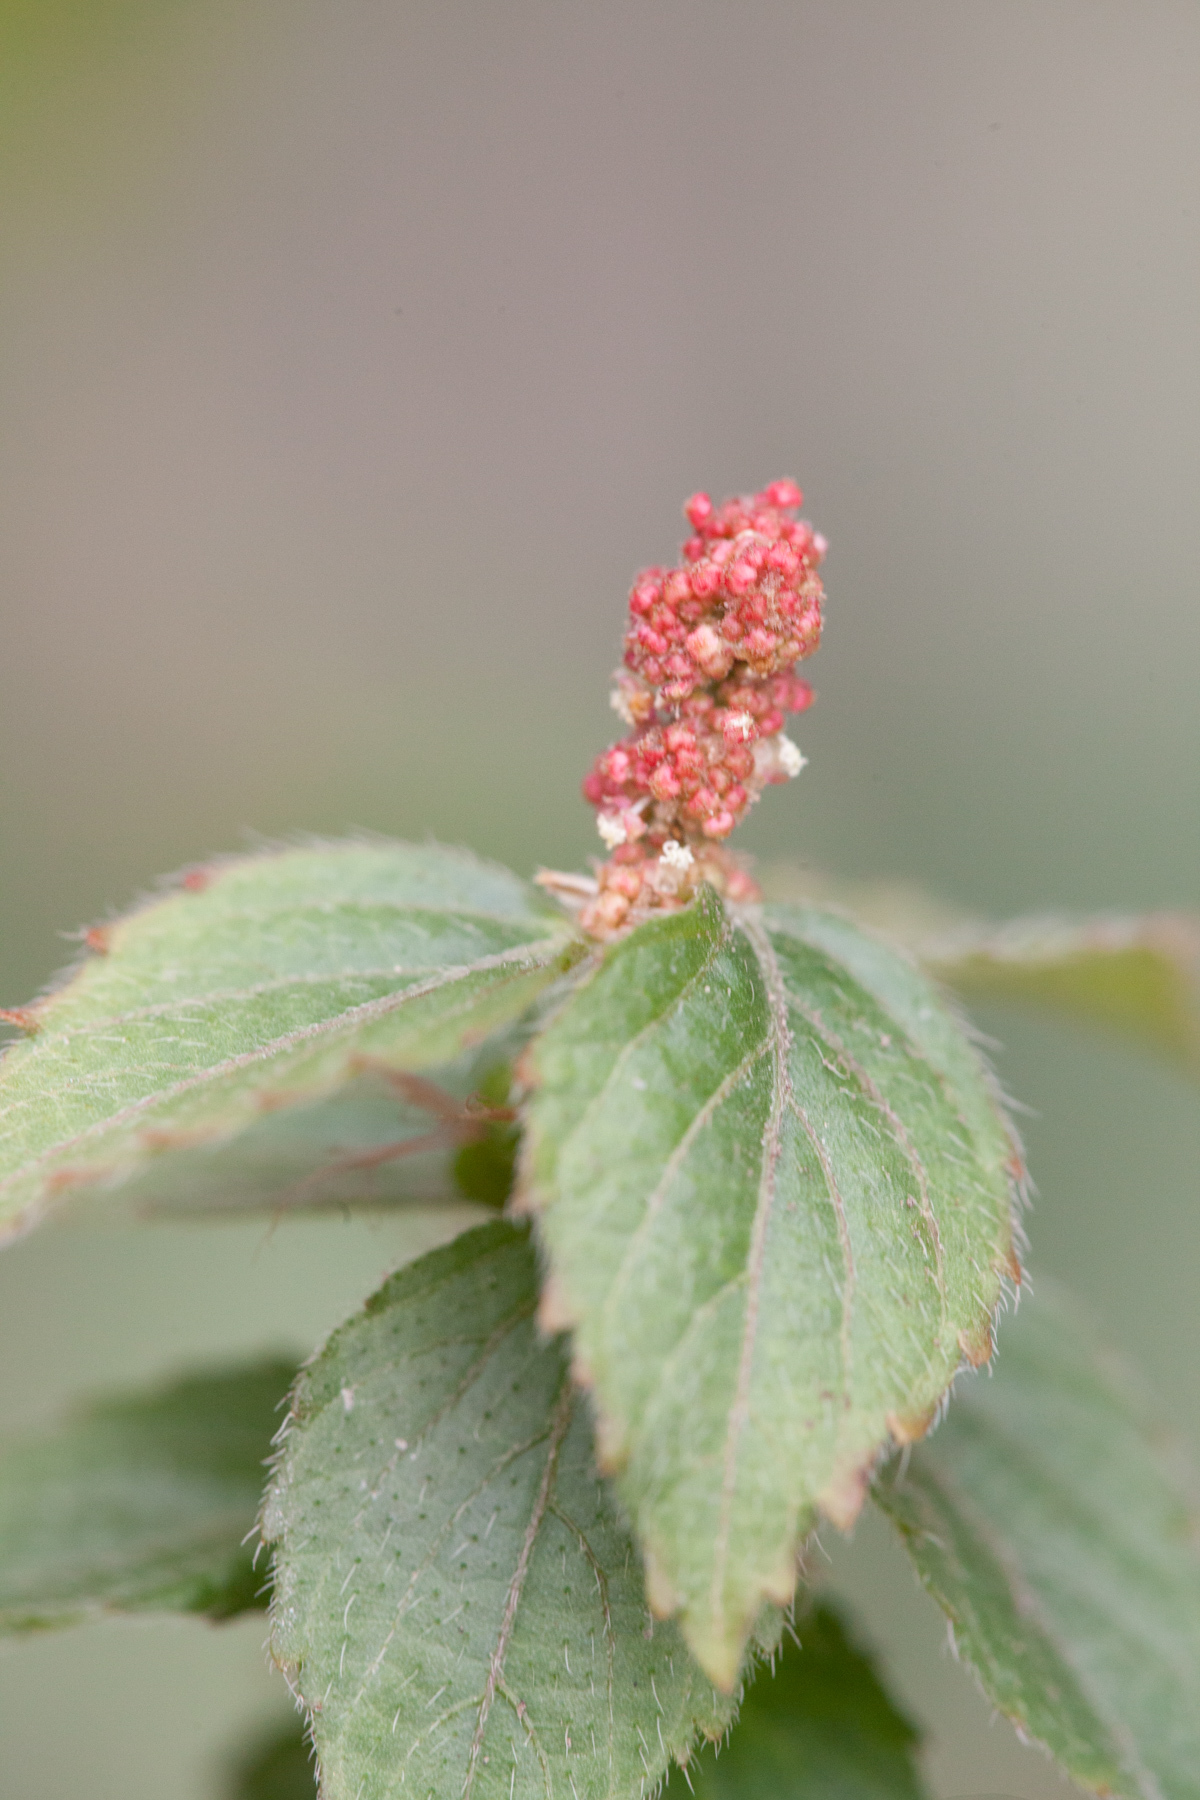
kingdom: Plantae
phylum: Tracheophyta
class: Magnoliopsida
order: Malpighiales
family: Euphorbiaceae
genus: Acalypha
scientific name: Acalypha phleoides
